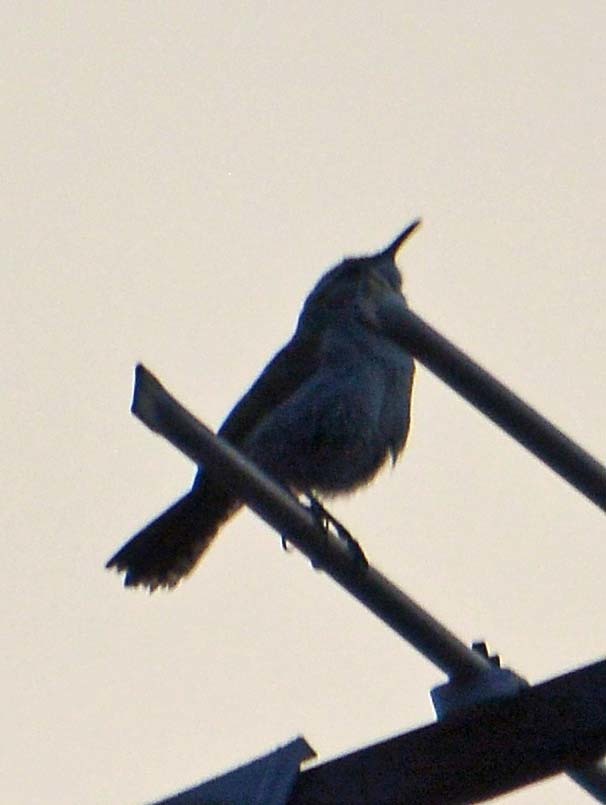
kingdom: Animalia
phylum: Chordata
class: Aves
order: Passeriformes
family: Troglodytidae
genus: Thryomanes
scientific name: Thryomanes bewickii
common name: Bewick's wren
